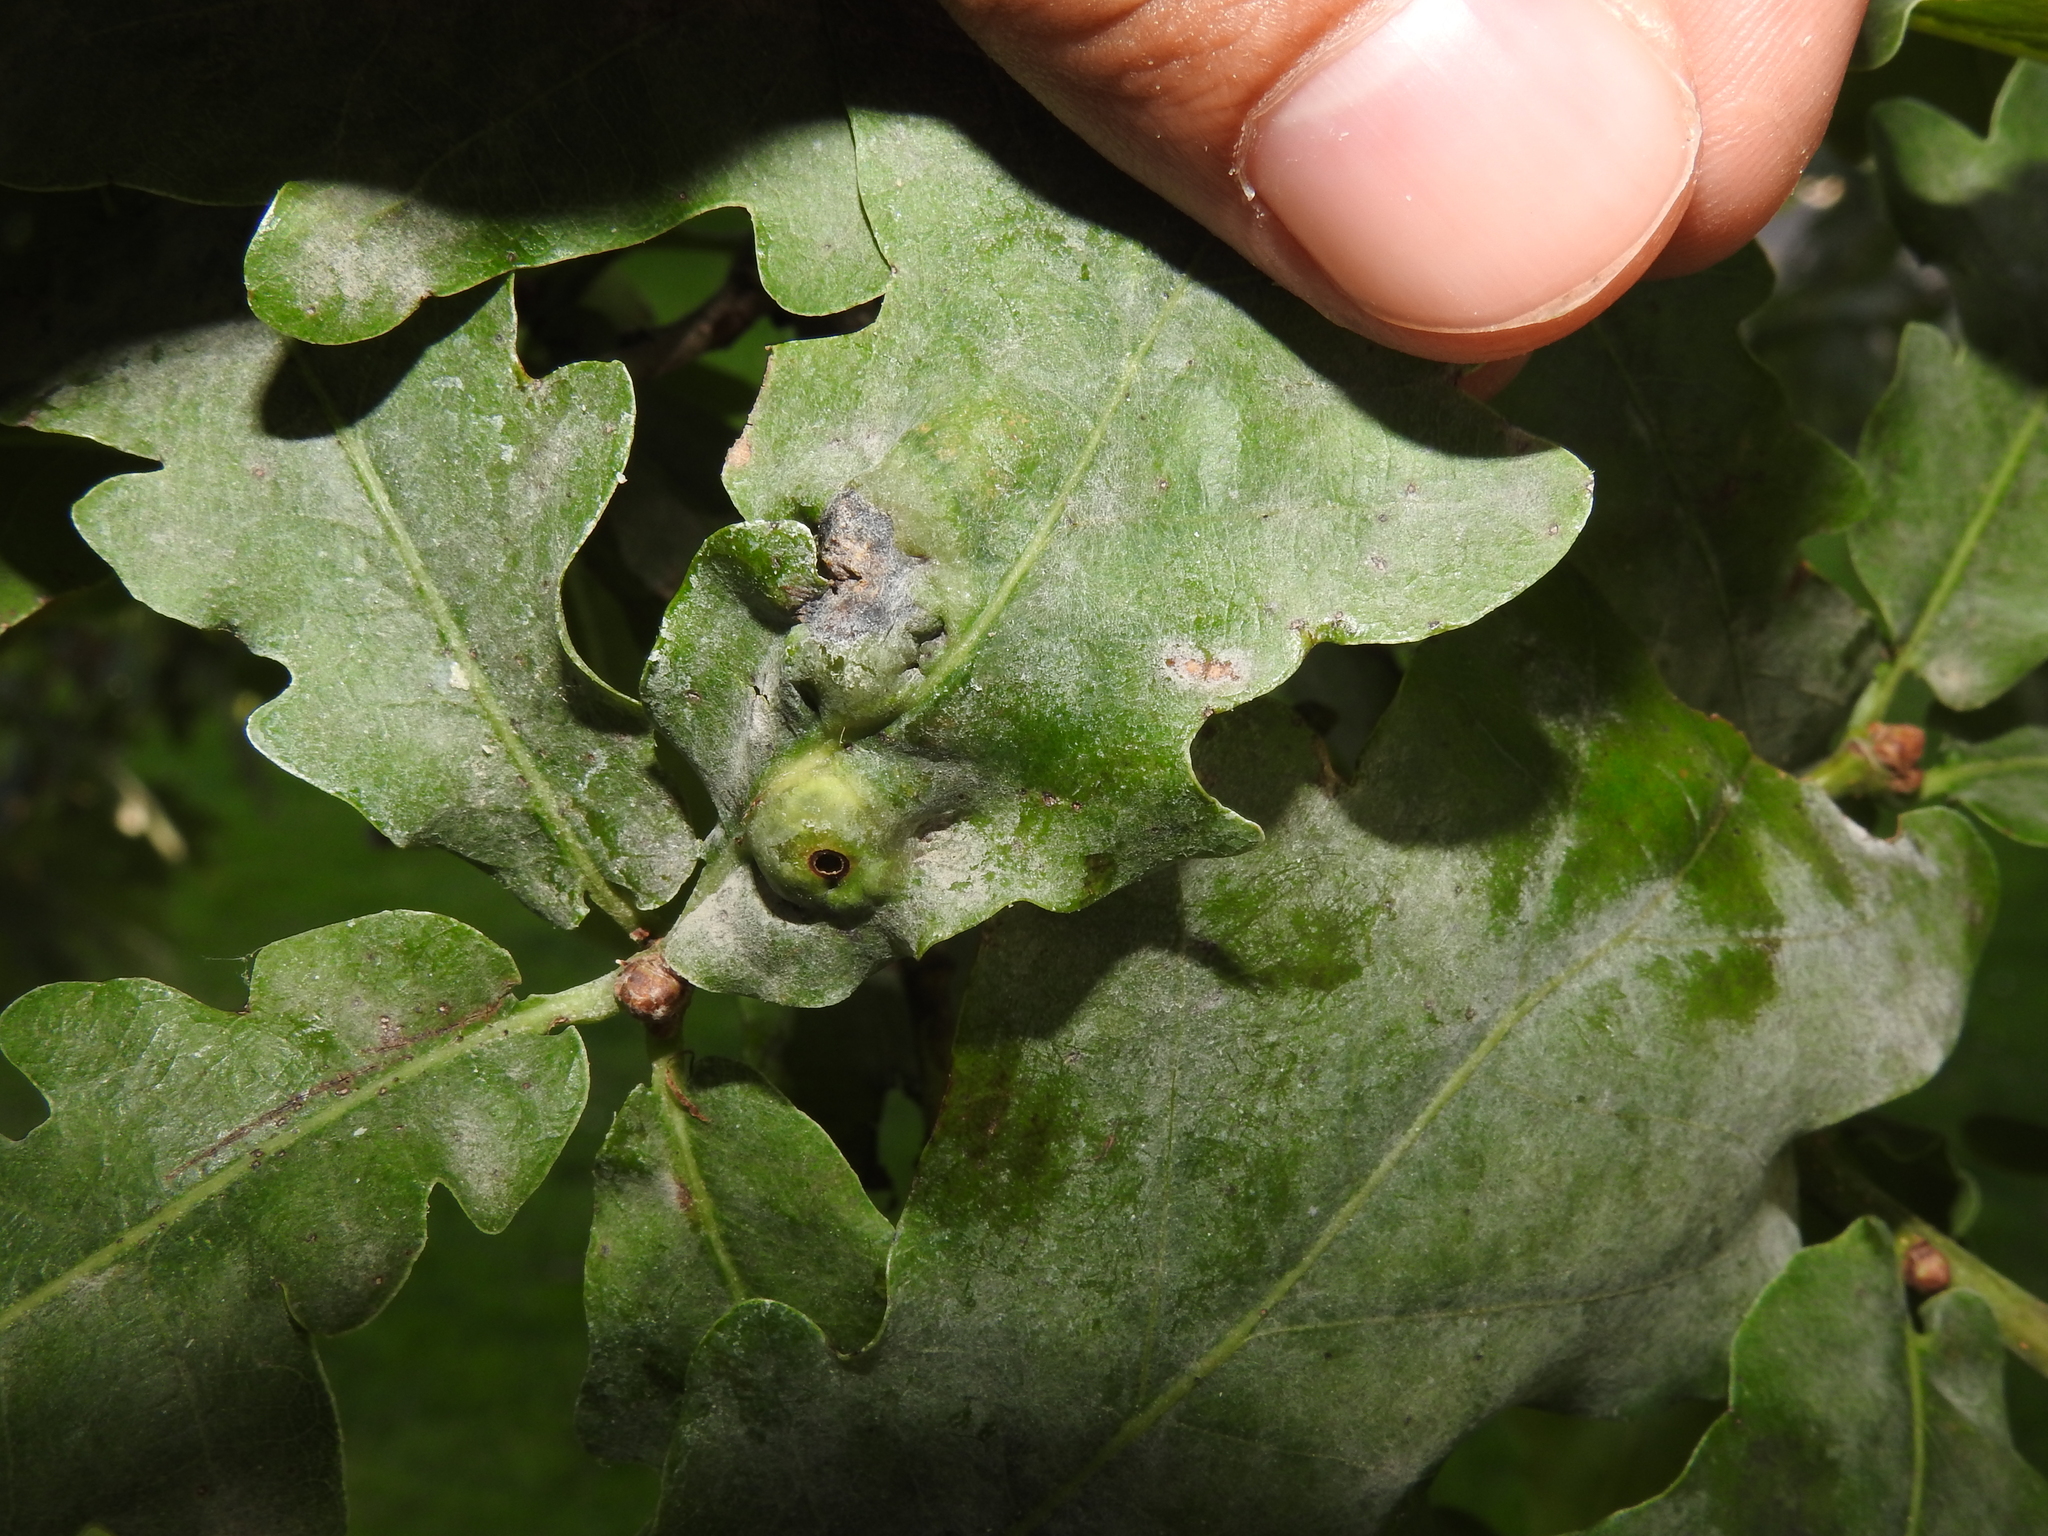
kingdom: Animalia
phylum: Arthropoda
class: Insecta
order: Hymenoptera
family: Cynipidae
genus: Andricus
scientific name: Andricus curvator
